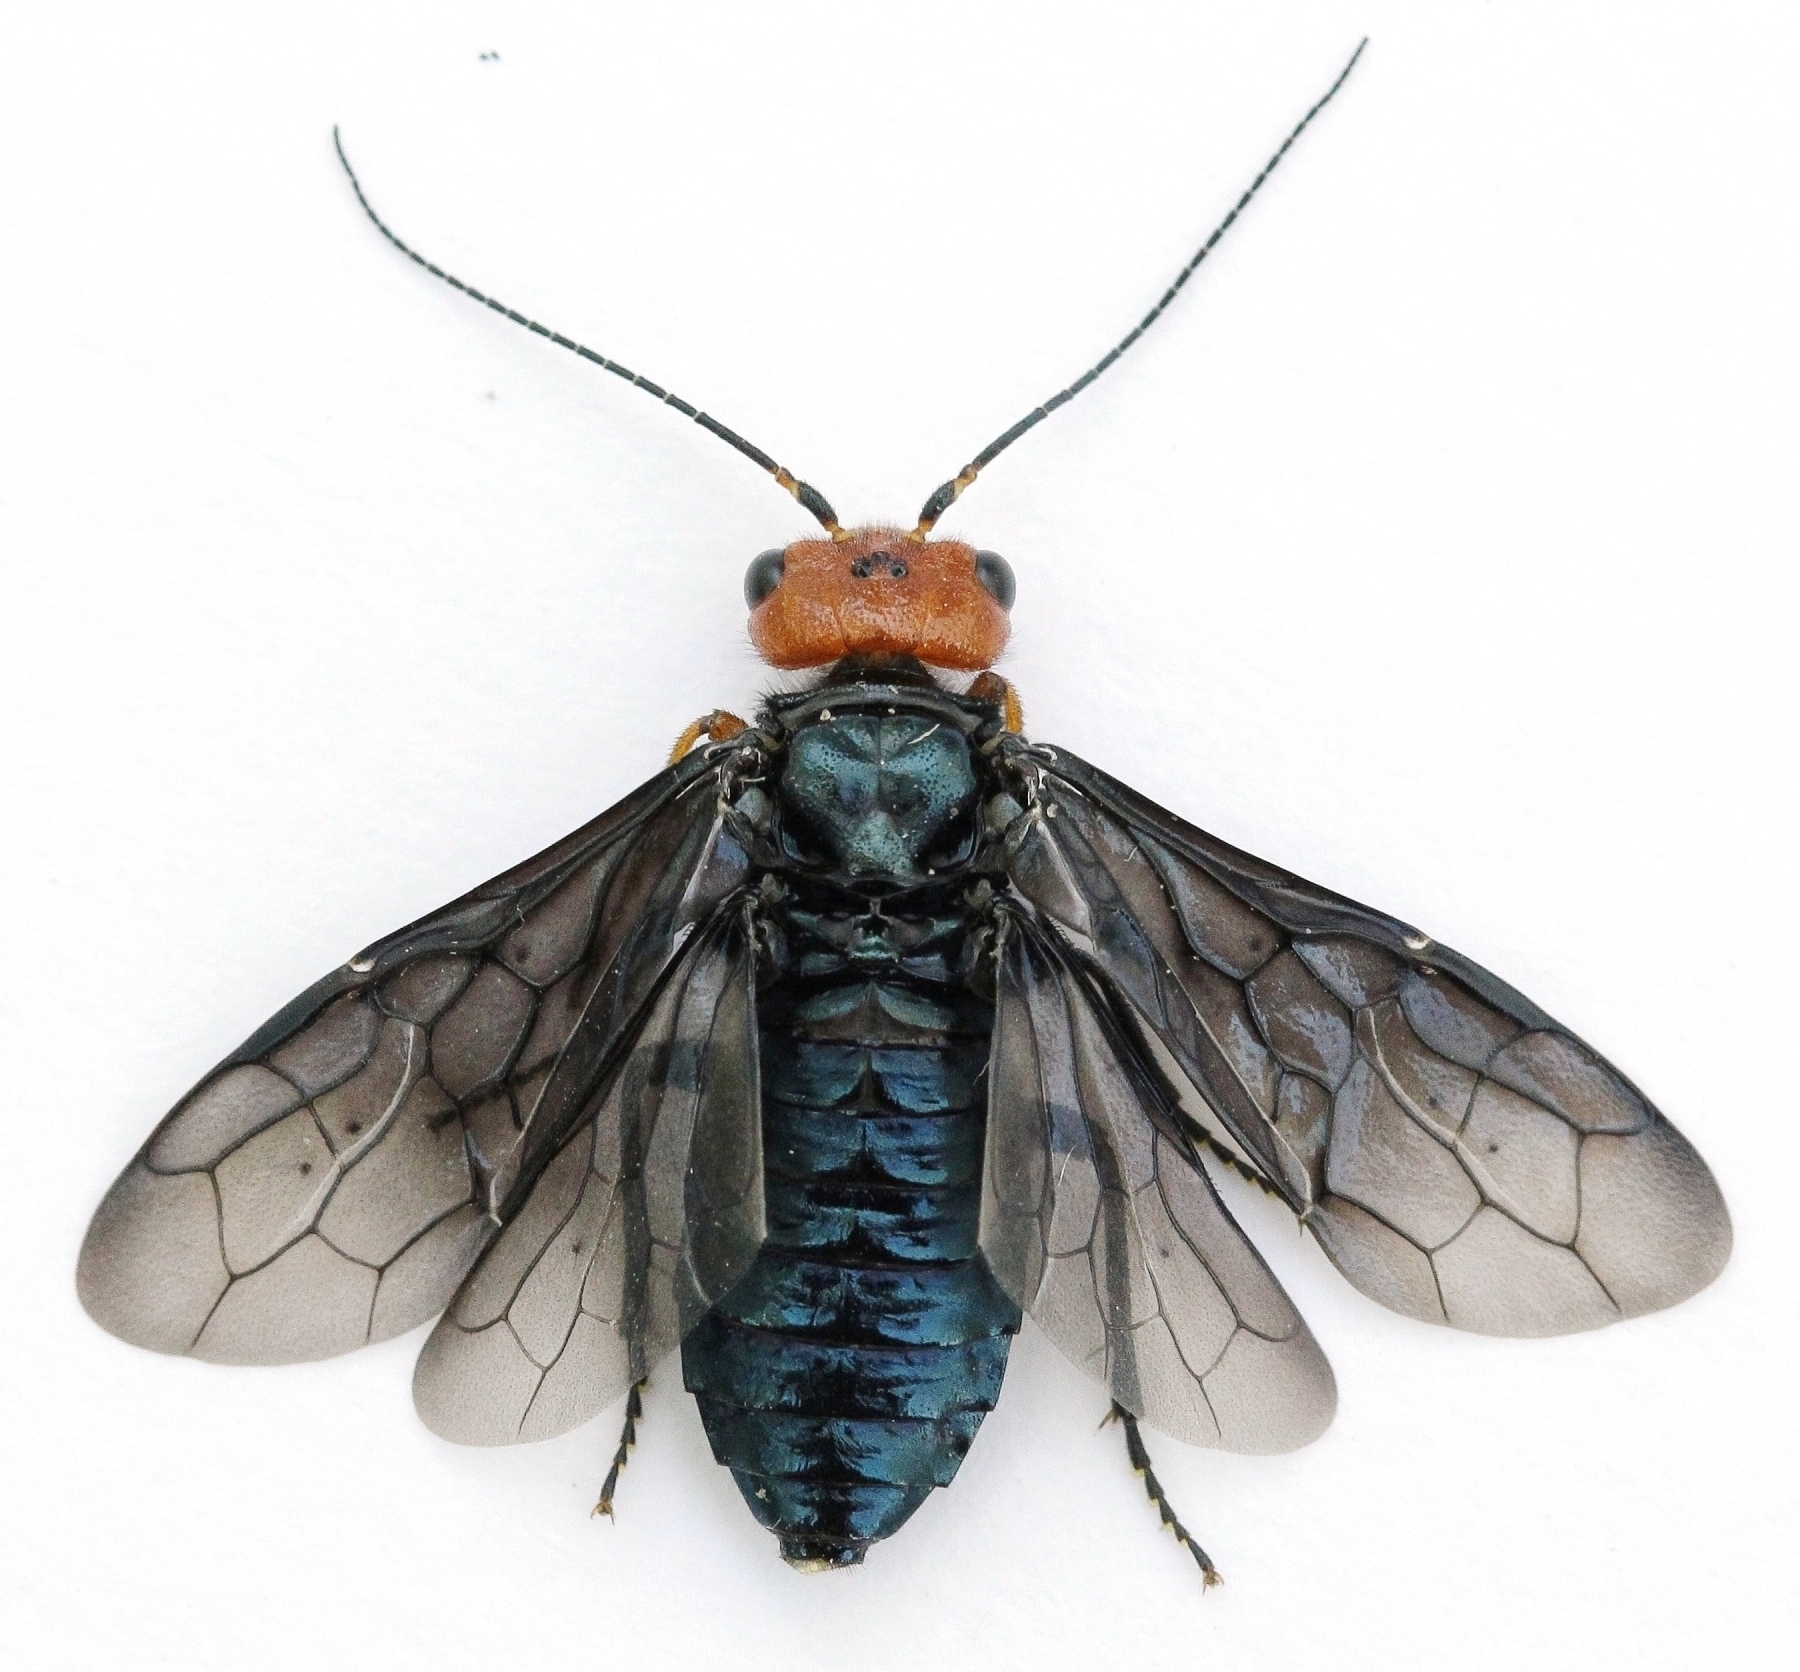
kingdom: Animalia
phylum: Arthropoda
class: Insecta
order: Hymenoptera
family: Pamphiliidae
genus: Acantholyda
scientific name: Acantholyda erythrocephala
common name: Pine false webworm
